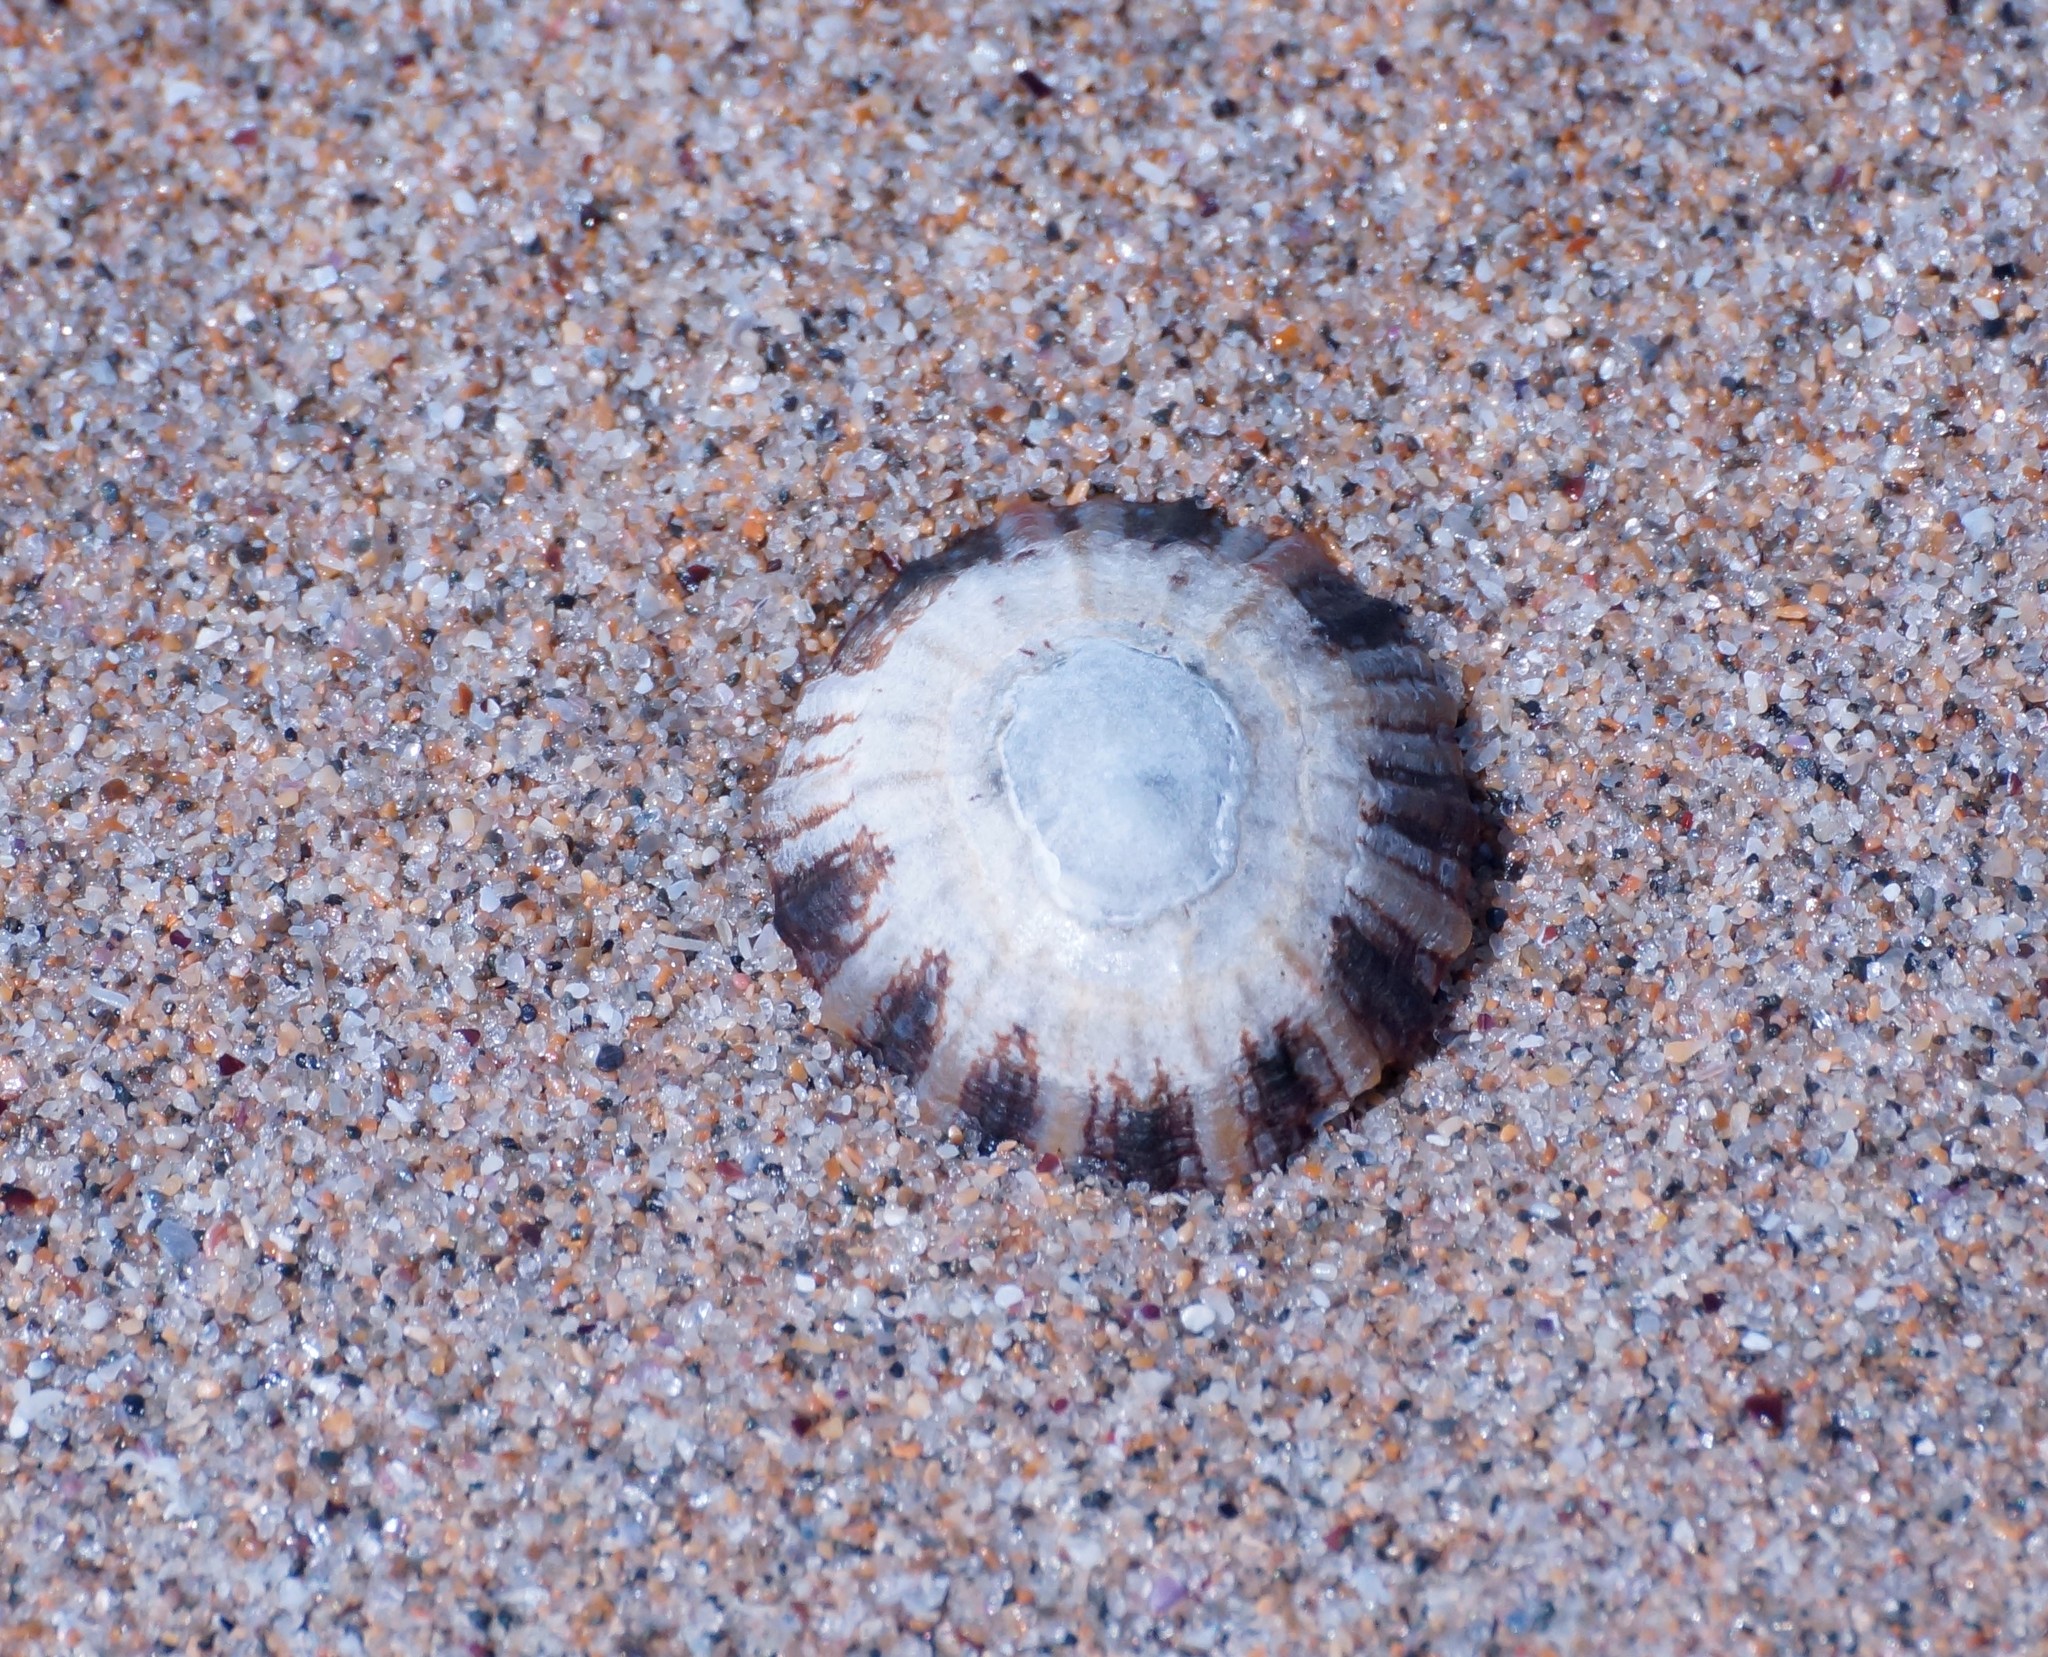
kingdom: Animalia
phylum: Mollusca
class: Gastropoda
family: Nacellidae
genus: Cellana
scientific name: Cellana tramoserica
